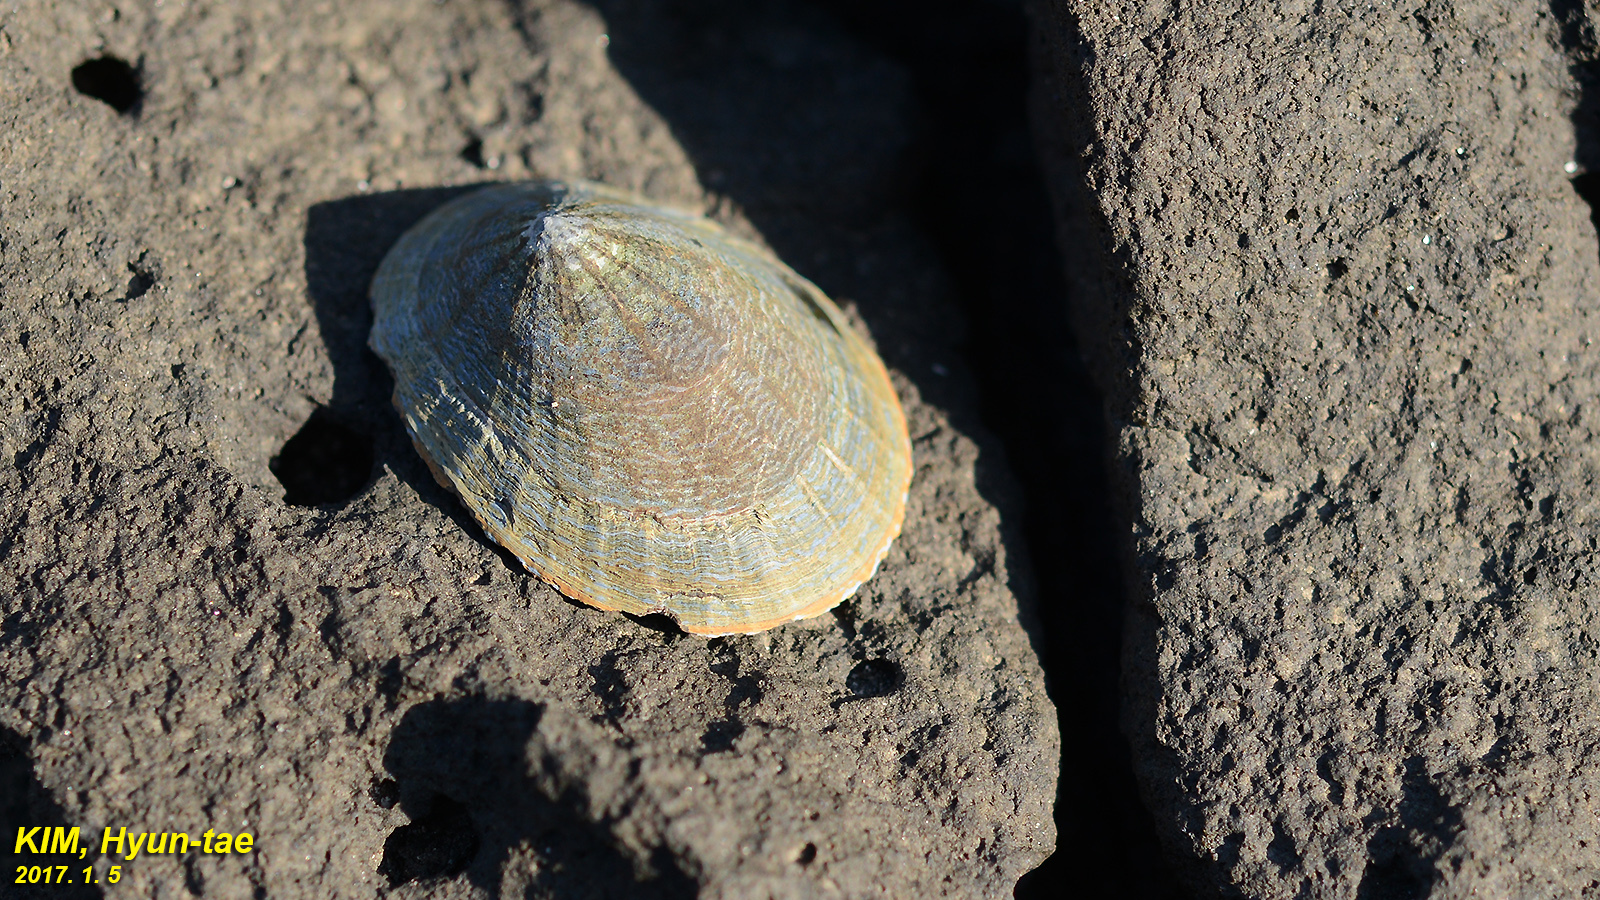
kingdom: Animalia
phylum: Mollusca
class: Gastropoda
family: Nacellidae
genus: Cellana
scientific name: Cellana nigrolineata
